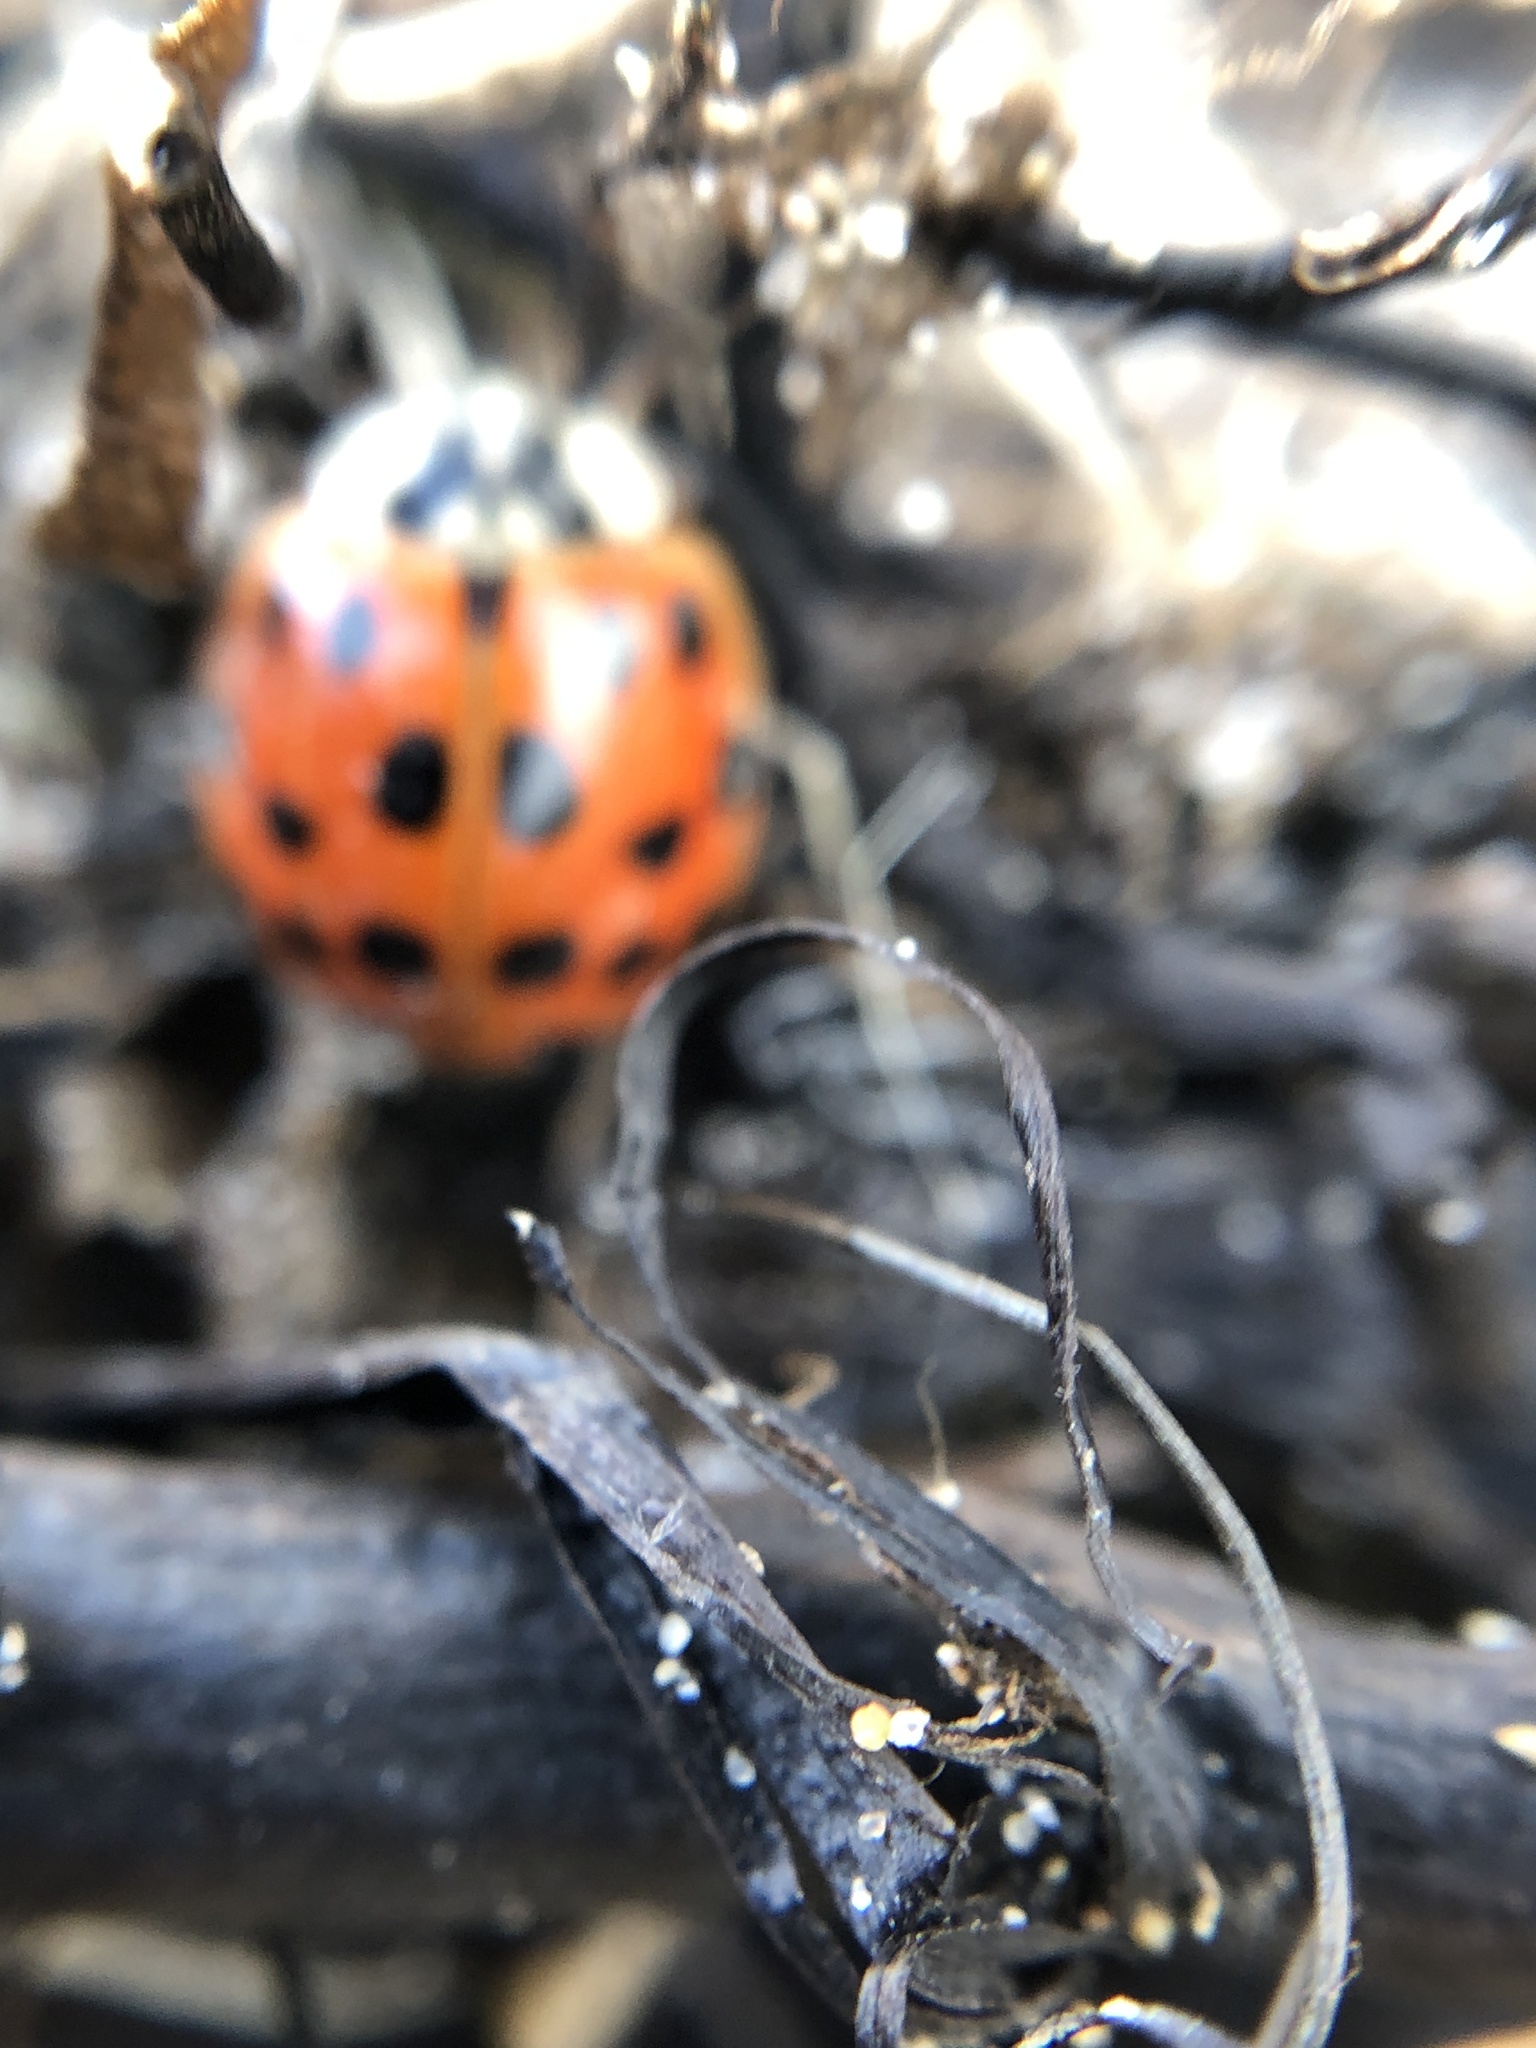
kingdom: Animalia
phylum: Arthropoda
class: Insecta
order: Coleoptera
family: Coccinellidae
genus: Harmonia
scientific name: Harmonia axyridis
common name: Harlequin ladybird
